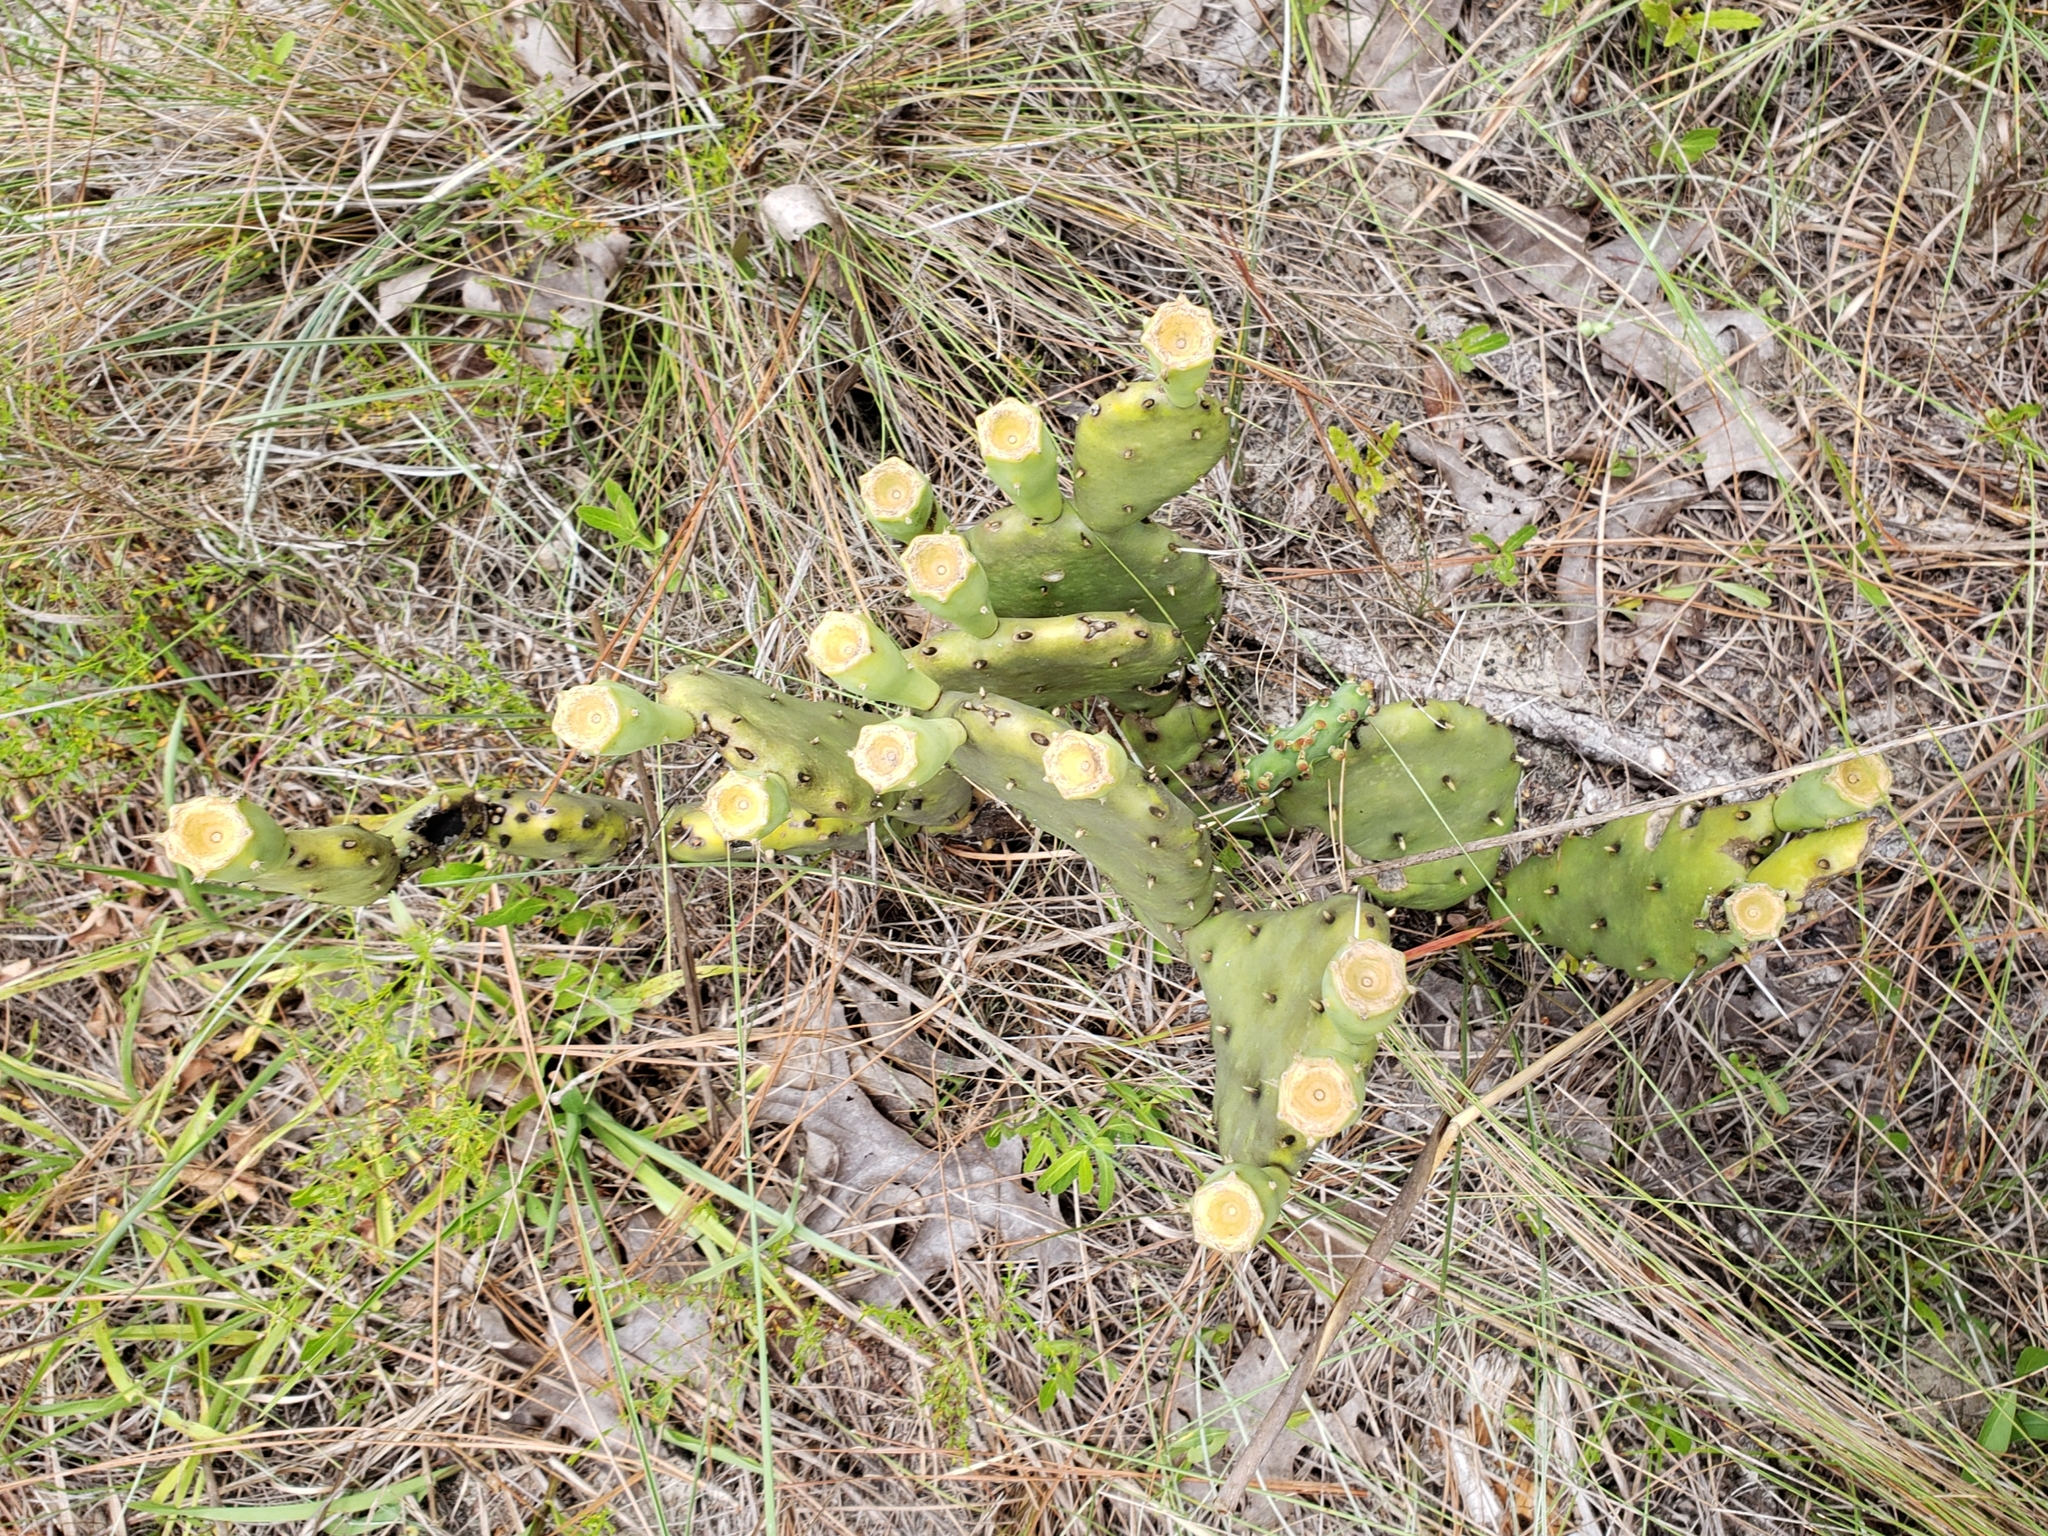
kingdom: Plantae
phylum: Tracheophyta
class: Magnoliopsida
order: Caryophyllales
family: Cactaceae
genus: Opuntia
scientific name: Opuntia austrina
